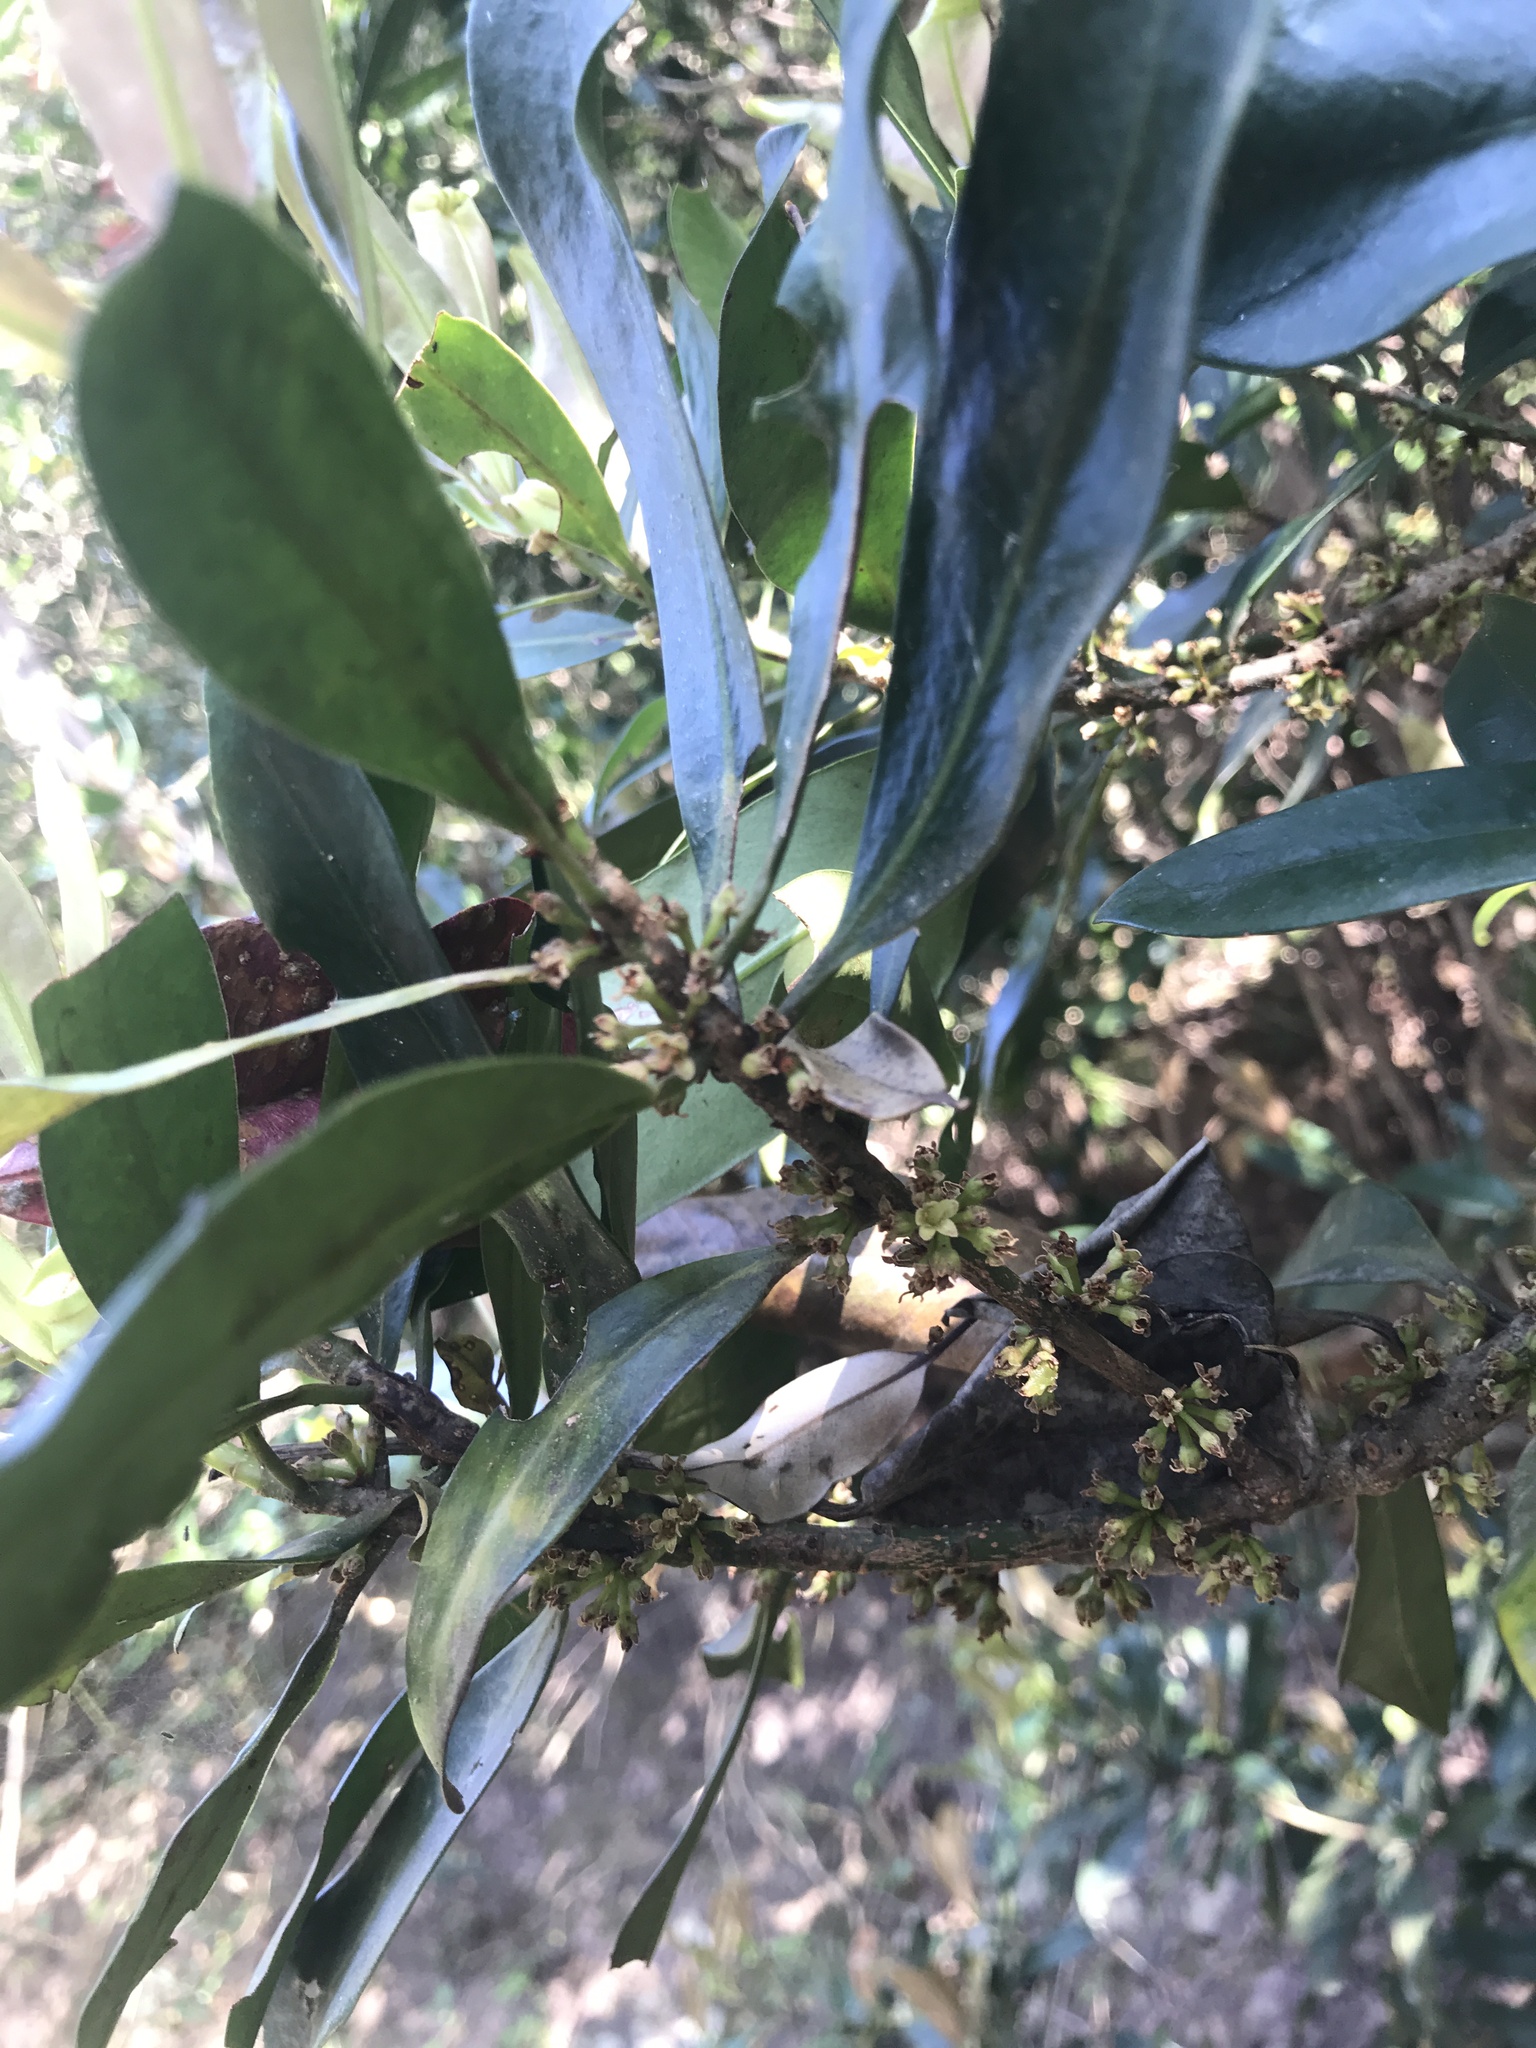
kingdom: Plantae
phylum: Tracheophyta
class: Magnoliopsida
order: Ericales
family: Primulaceae
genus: Myrsine
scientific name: Myrsine seguinii
